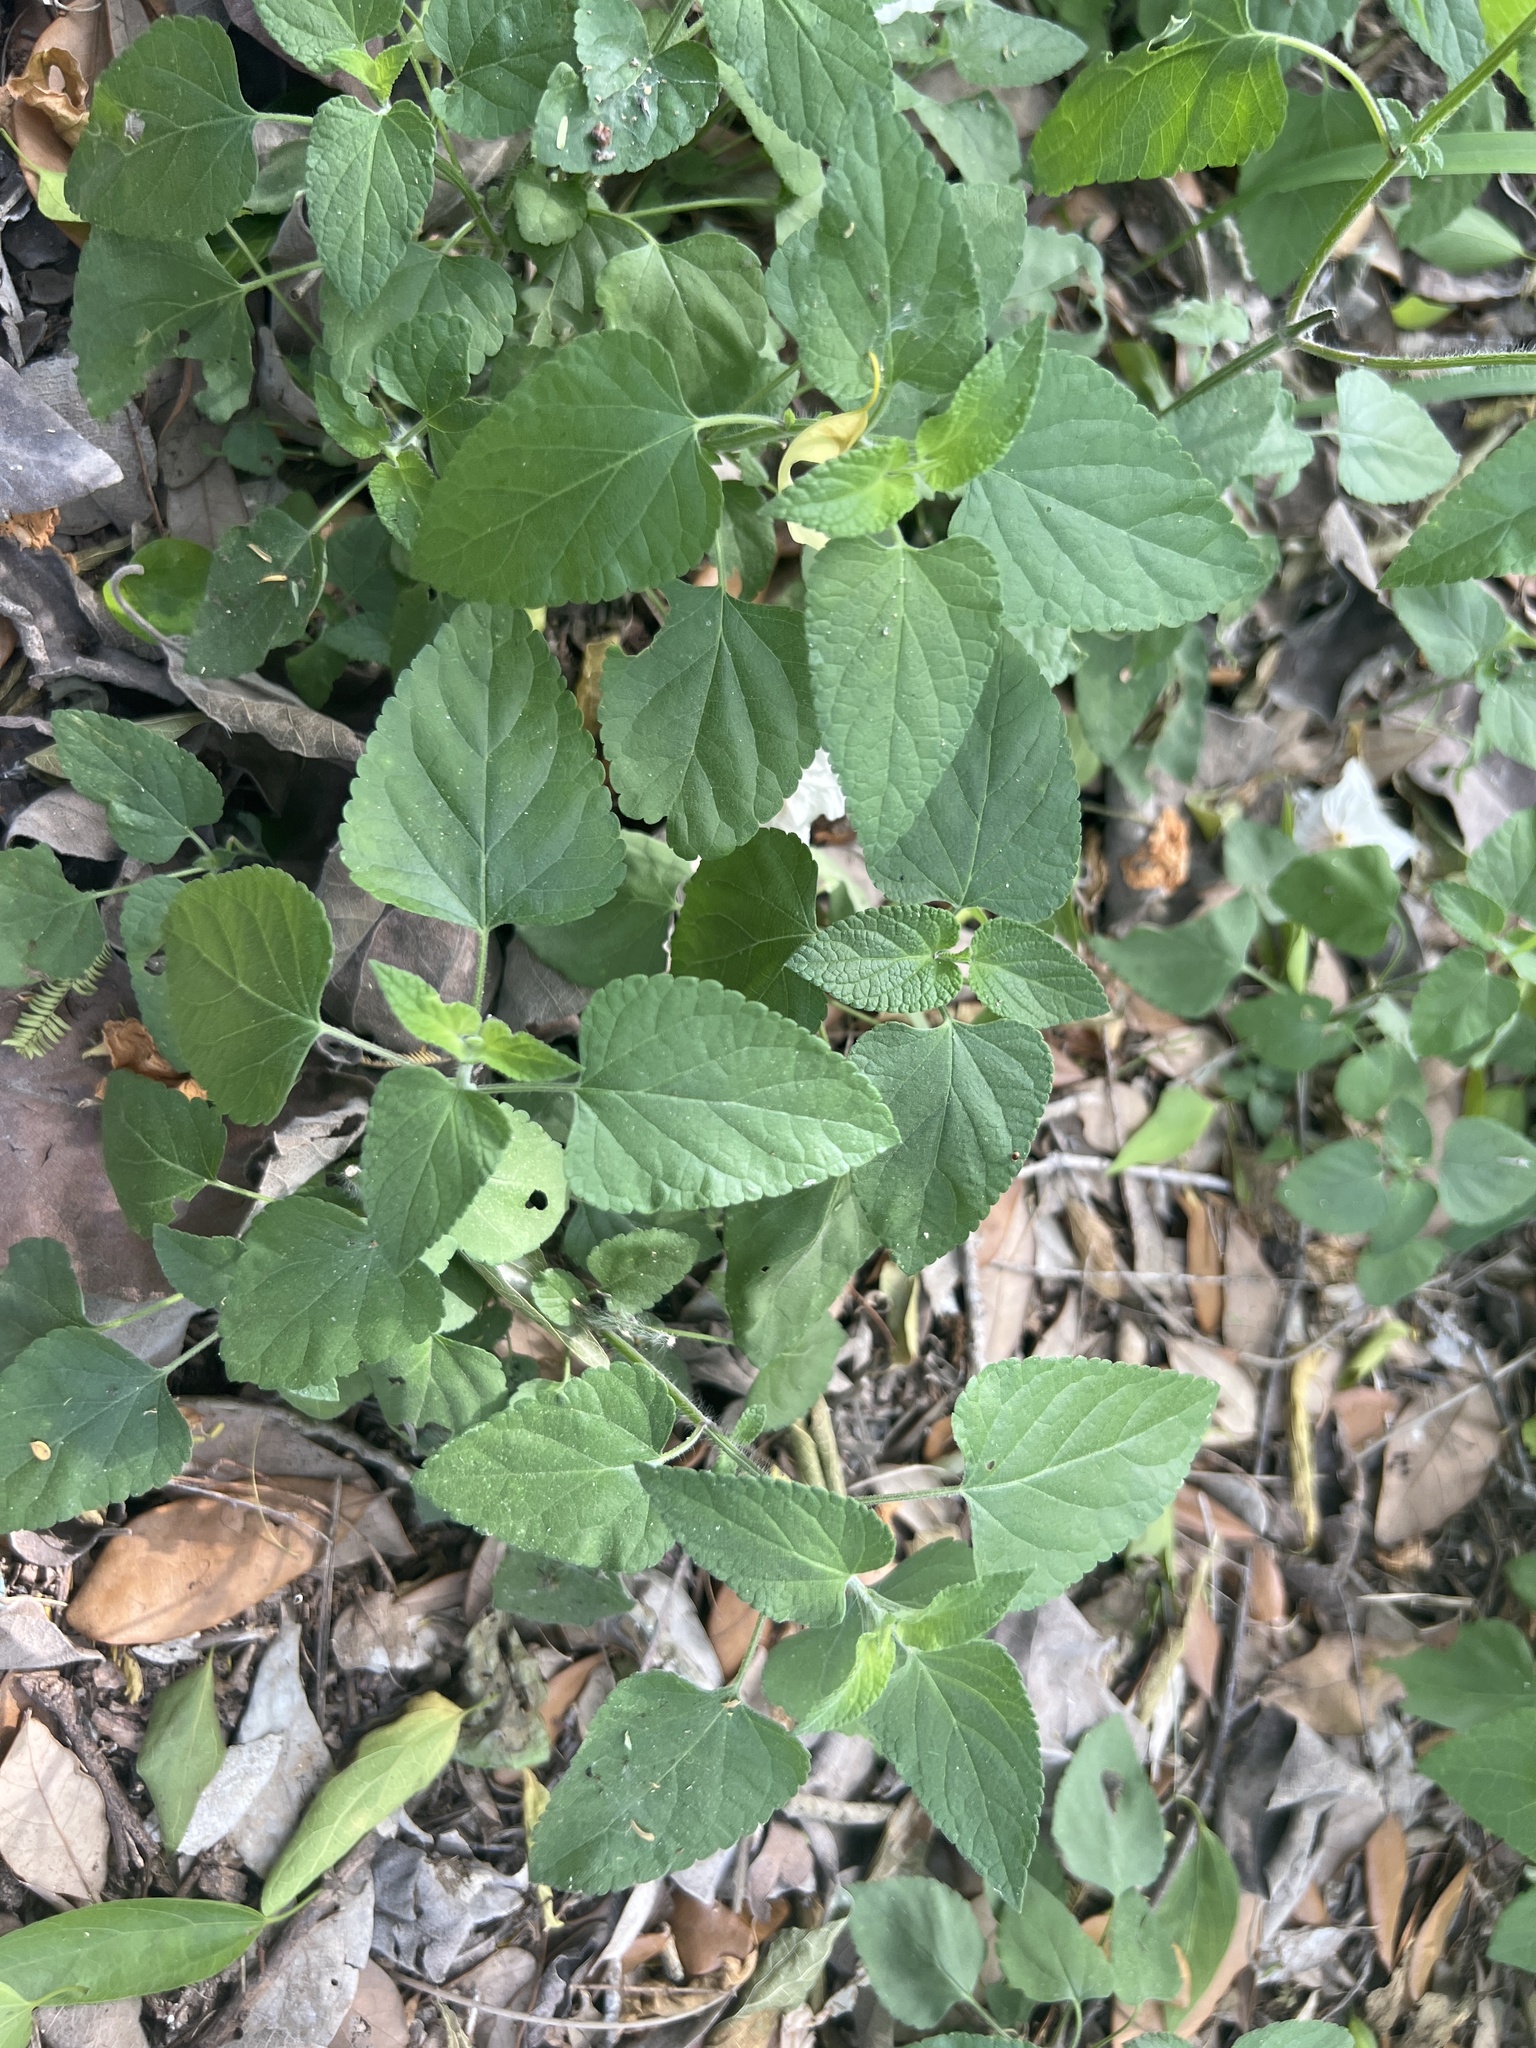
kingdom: Plantae
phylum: Tracheophyta
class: Magnoliopsida
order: Lamiales
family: Lamiaceae
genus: Salvia
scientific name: Salvia coccinea
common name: Blood sage
